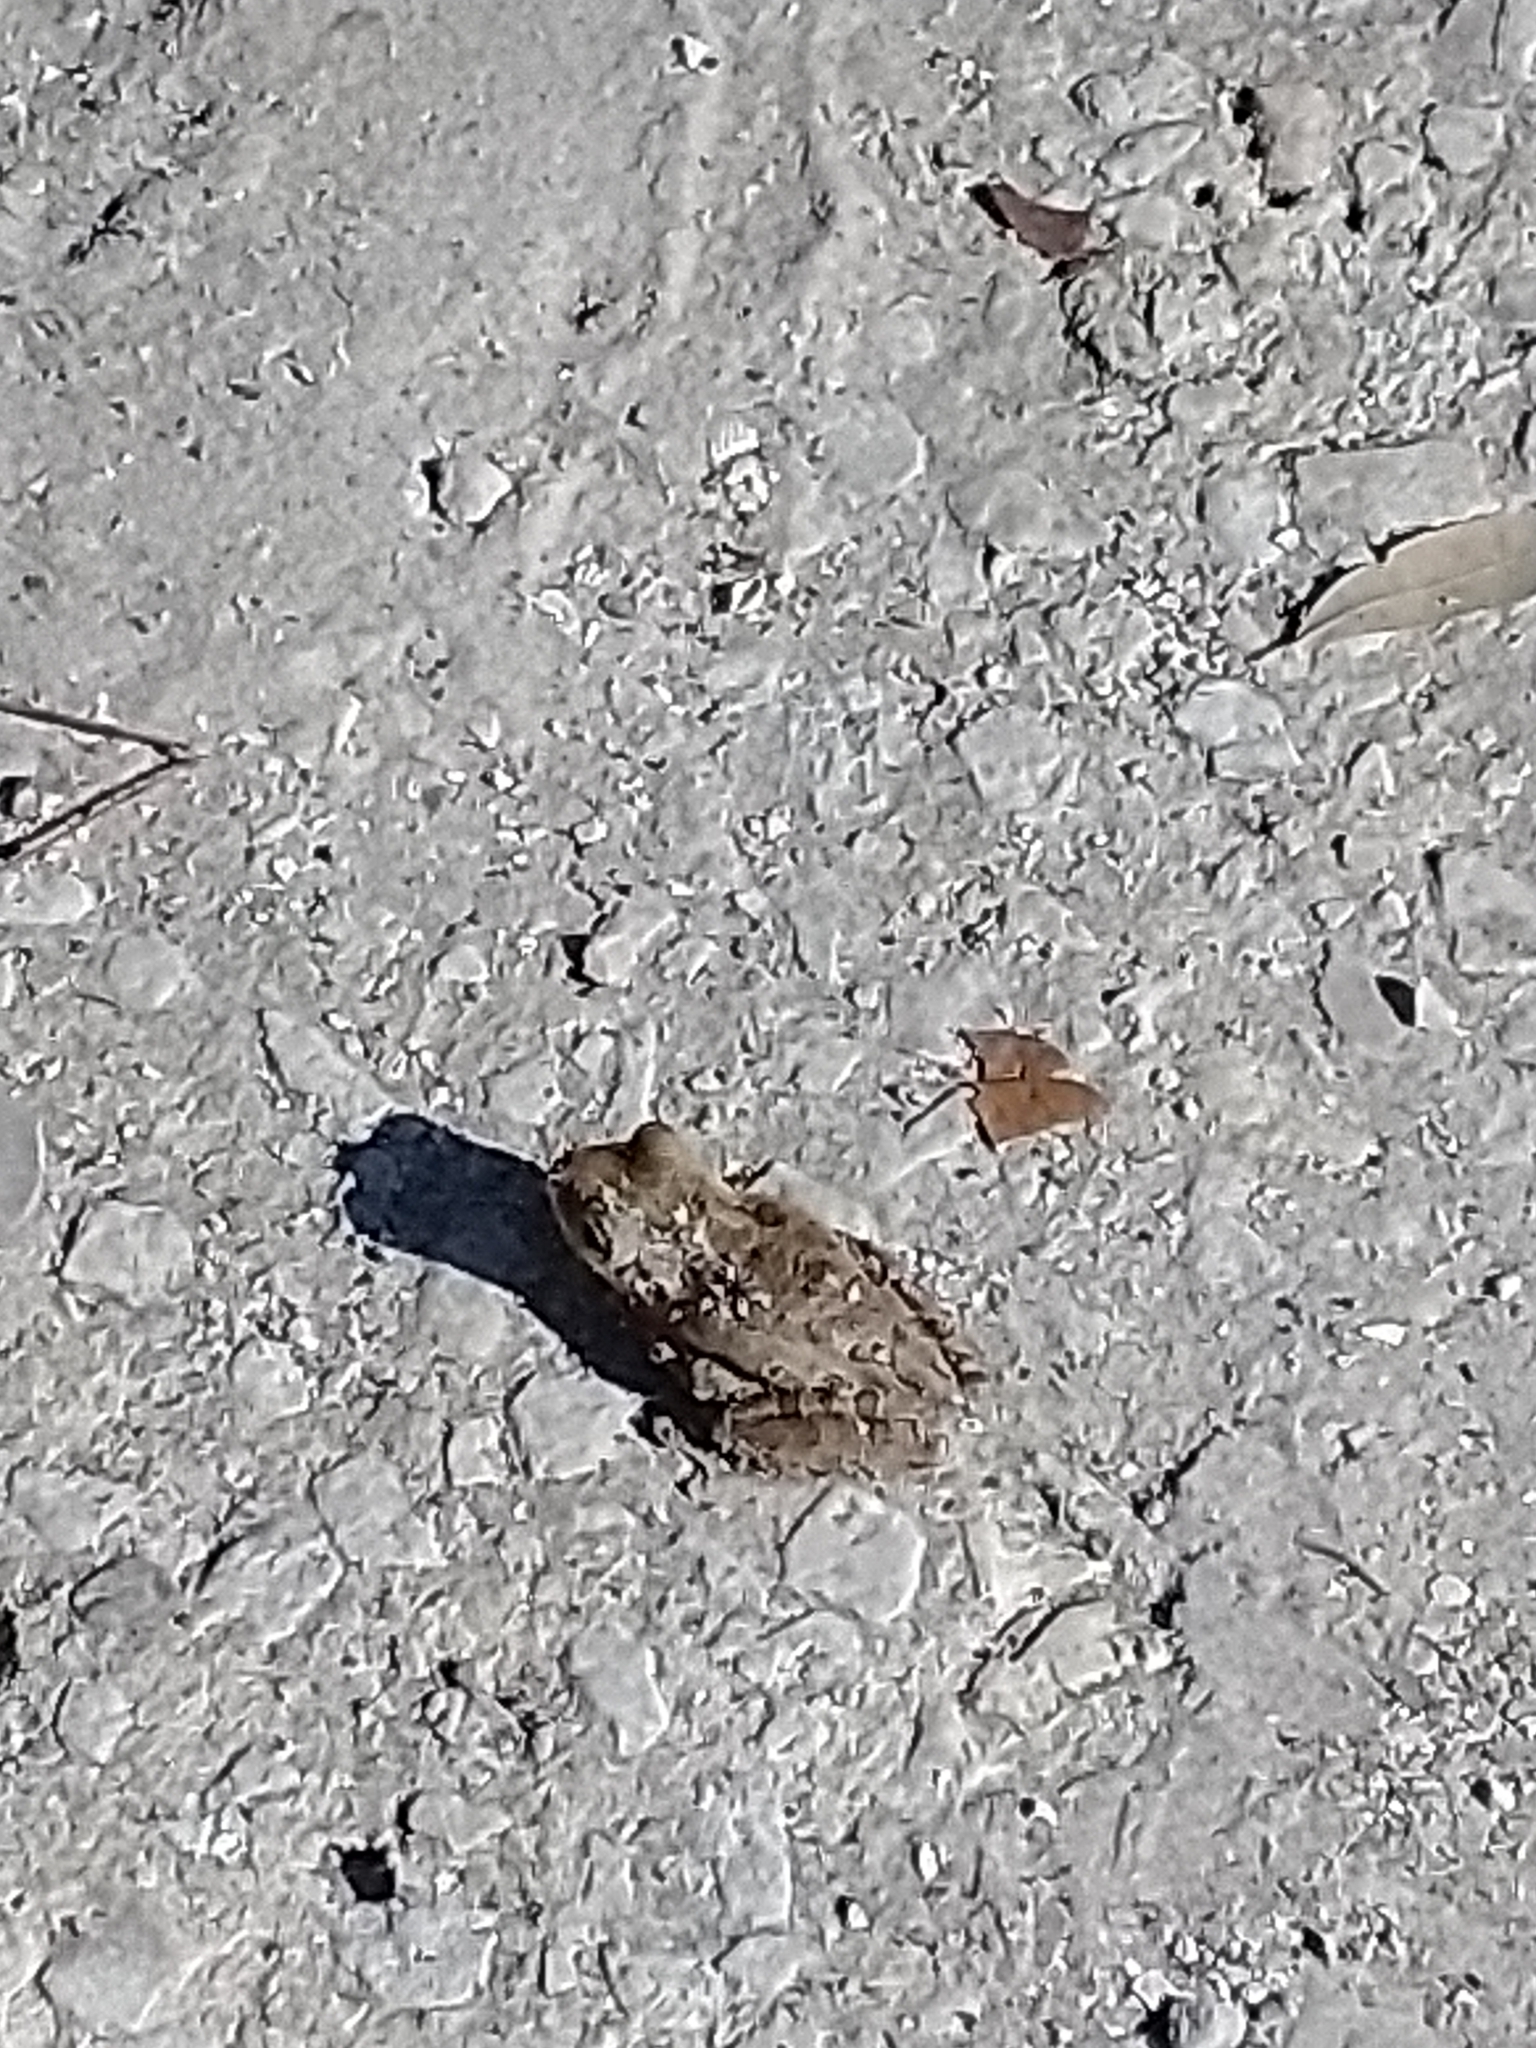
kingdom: Animalia
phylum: Chordata
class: Amphibia
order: Anura
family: Hylidae
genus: Osteopilus
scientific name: Osteopilus septentrionalis
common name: Cuban treefrog
